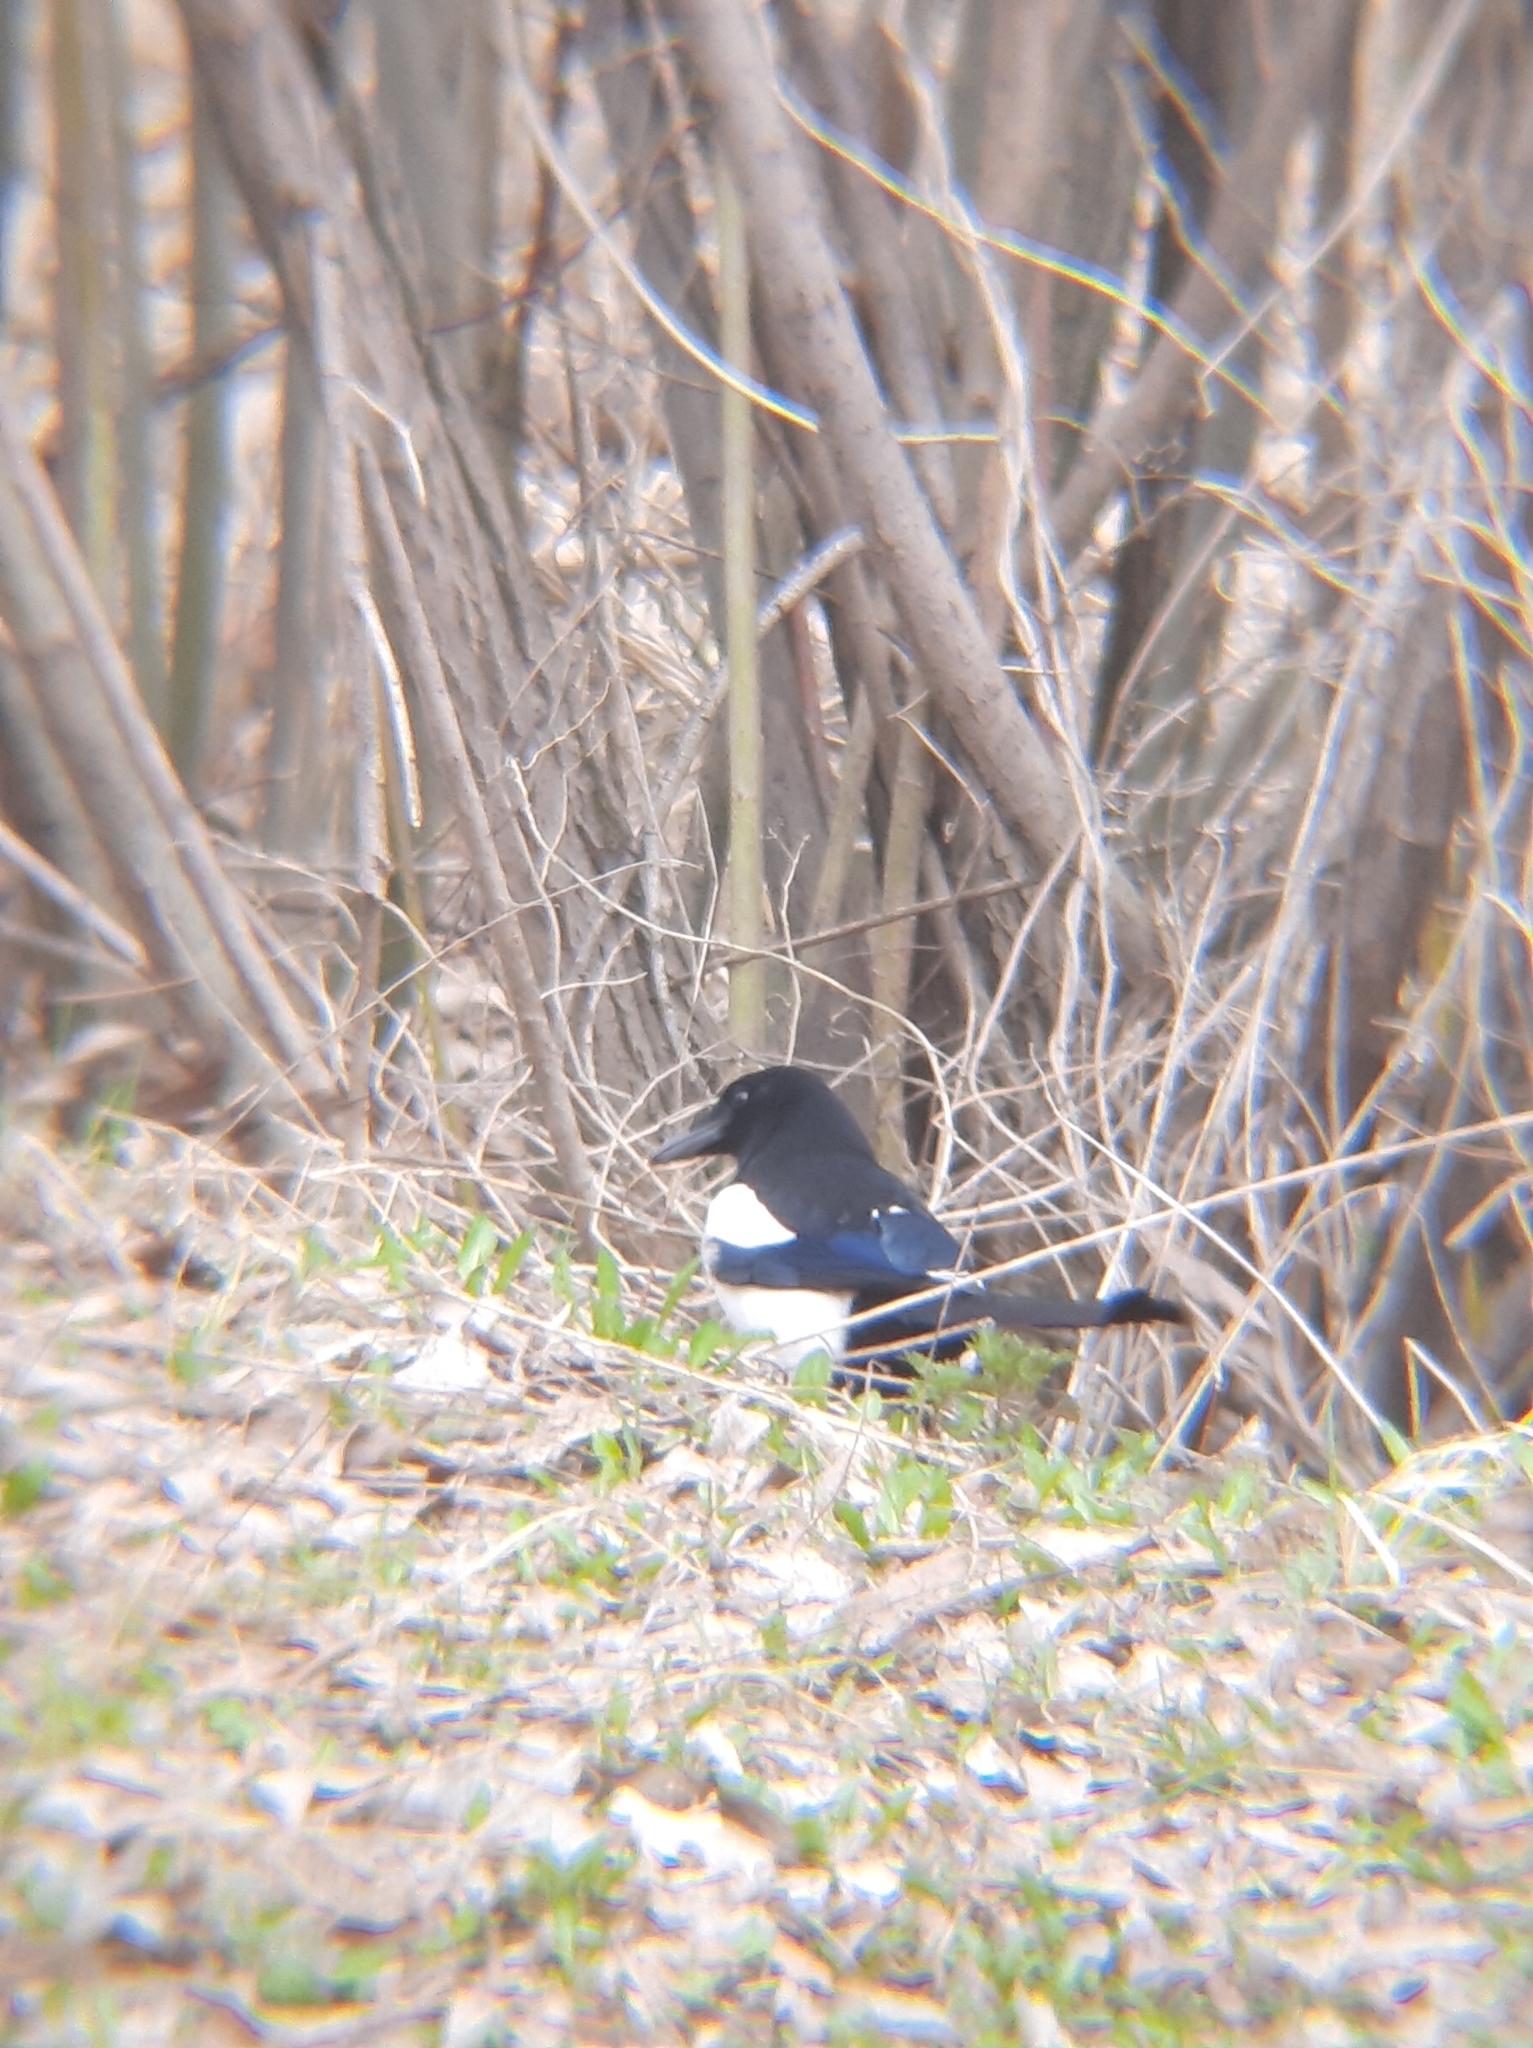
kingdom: Animalia
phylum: Chordata
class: Aves
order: Passeriformes
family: Corvidae
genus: Pica
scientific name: Pica pica
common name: Eurasian magpie
